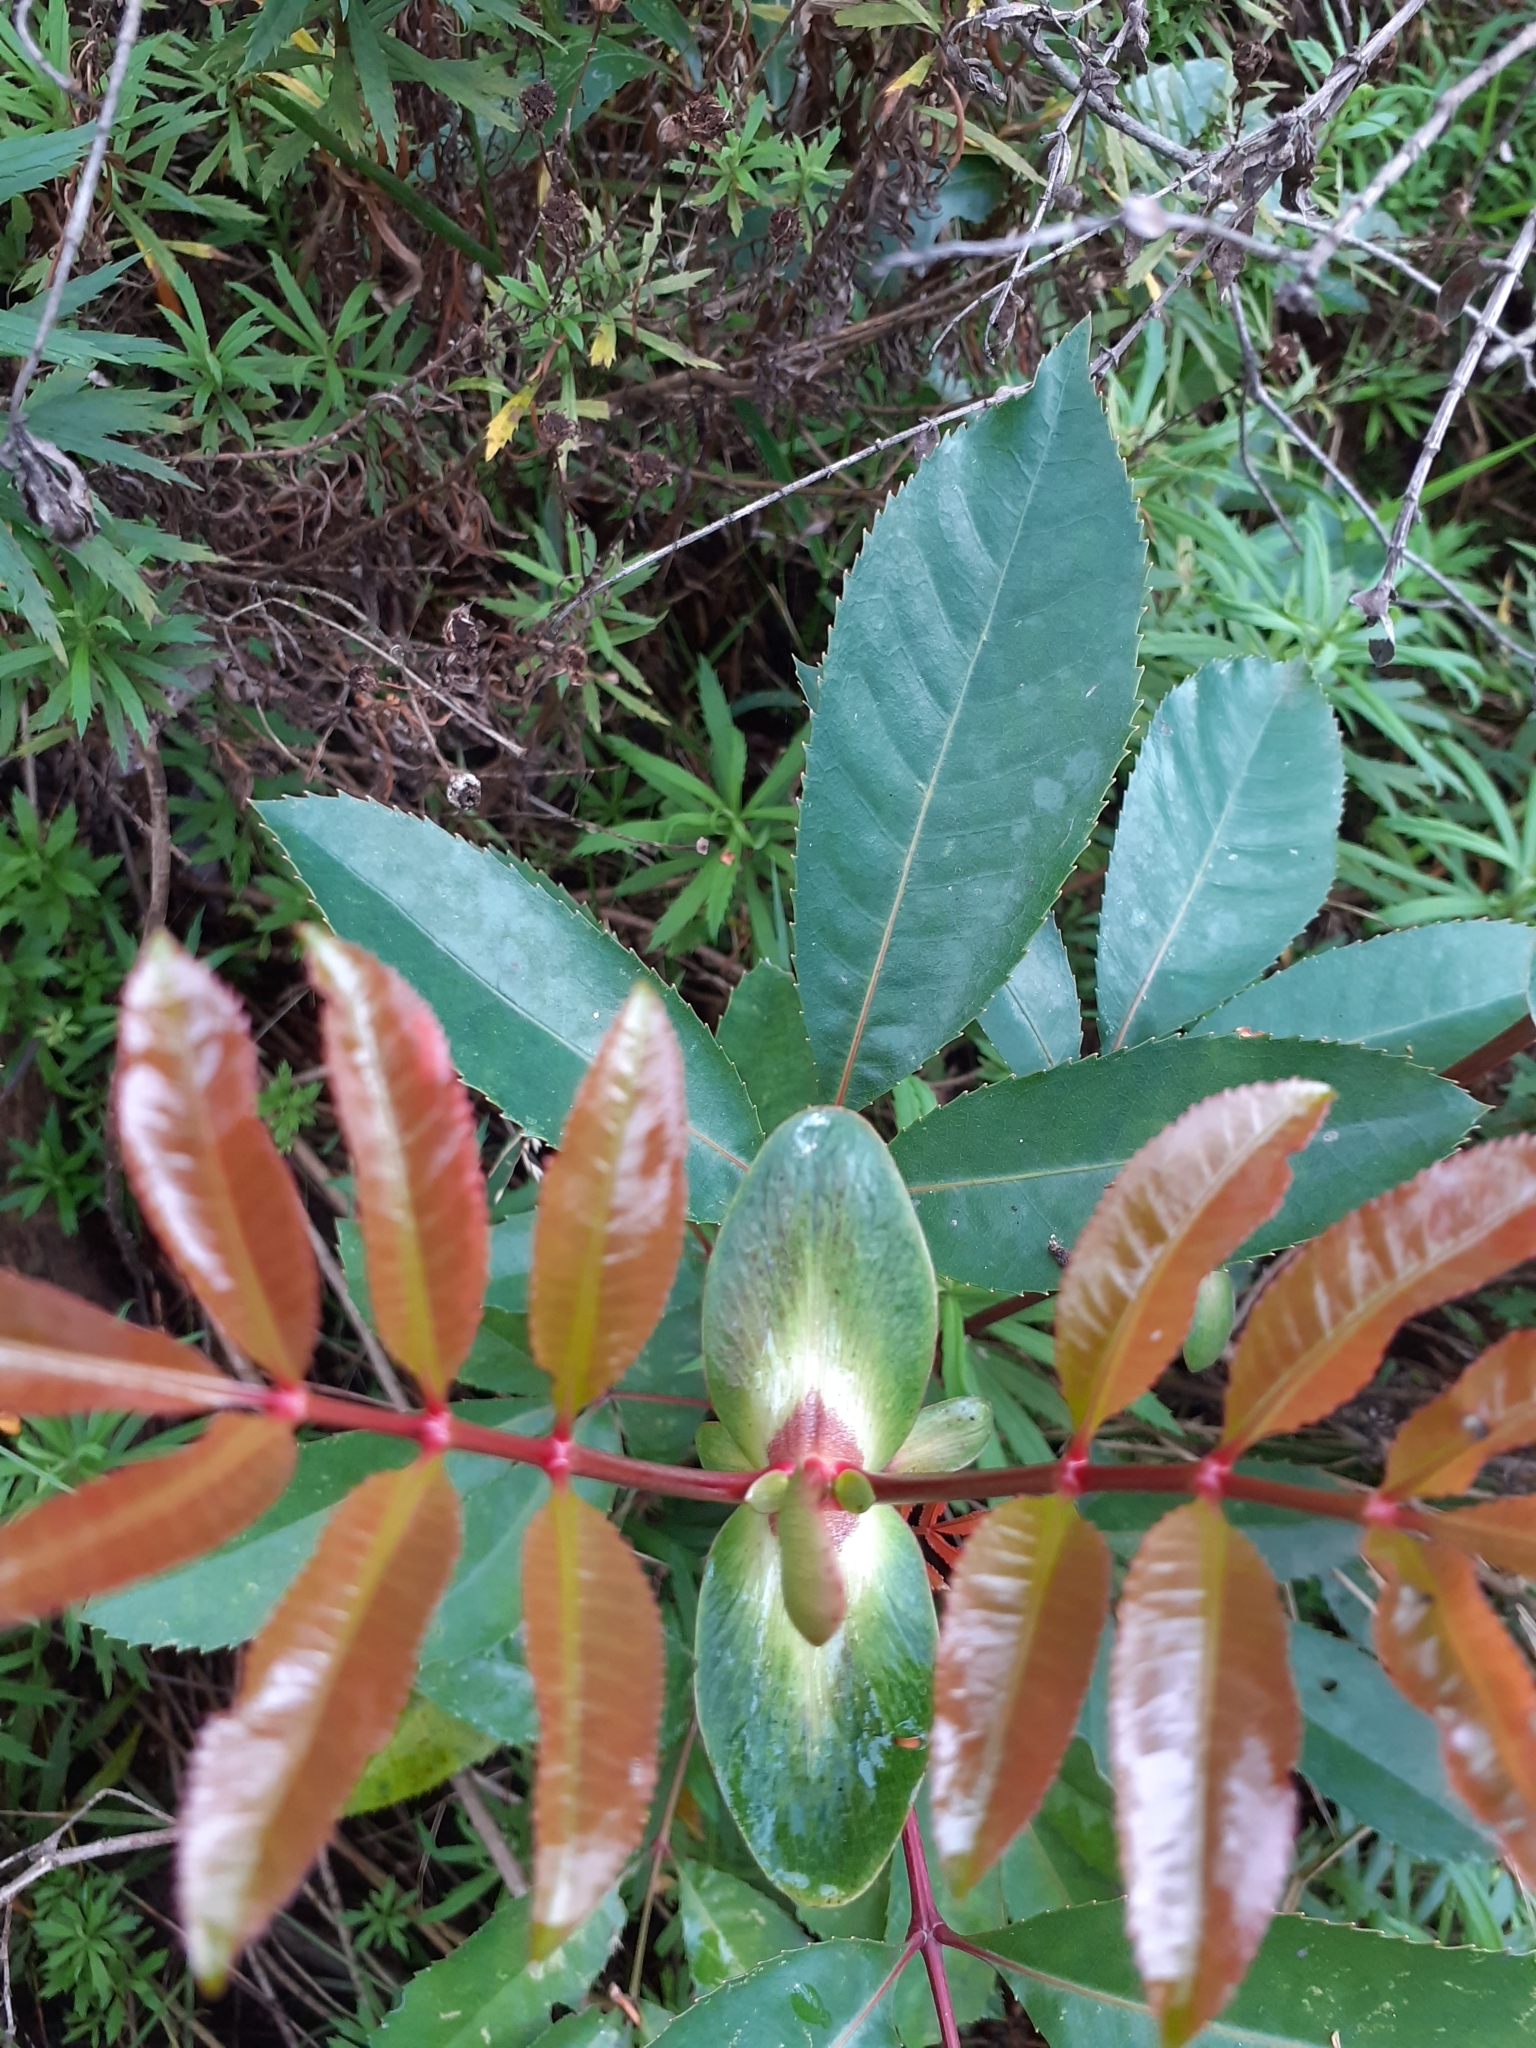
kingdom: Plantae
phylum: Tracheophyta
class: Magnoliopsida
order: Oxalidales
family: Cunoniaceae
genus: Cunonia
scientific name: Cunonia capensis
